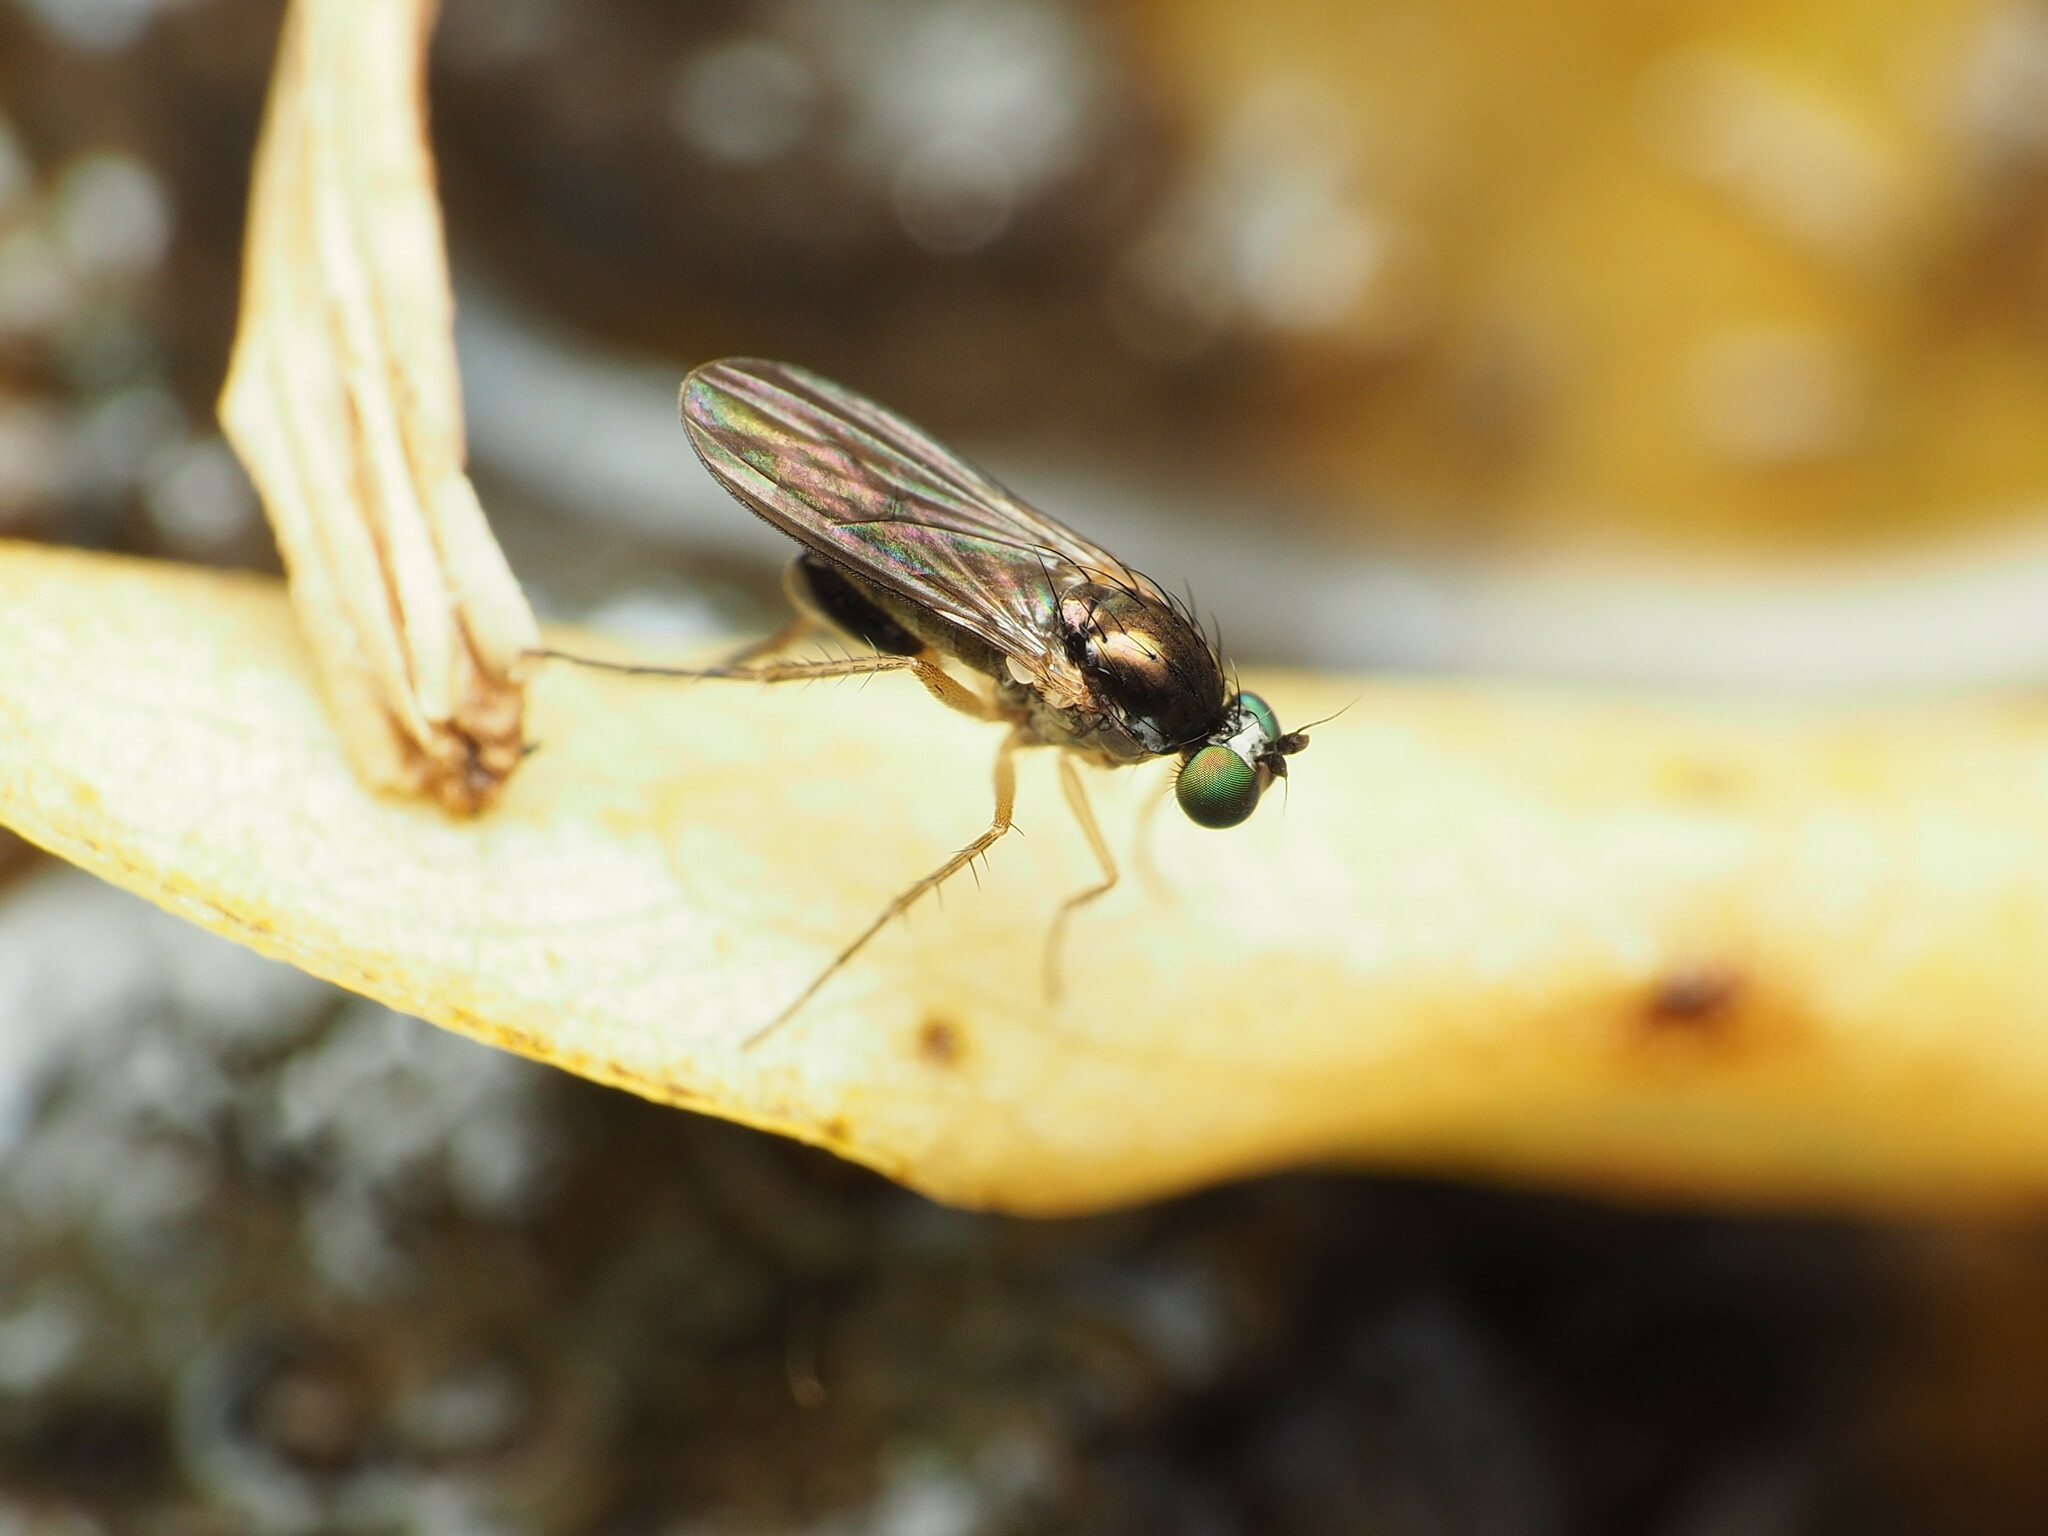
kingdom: Animalia
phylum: Arthropoda
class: Insecta
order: Diptera
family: Dolichopodidae
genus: Gymnopternus
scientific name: Gymnopternus meniscus
